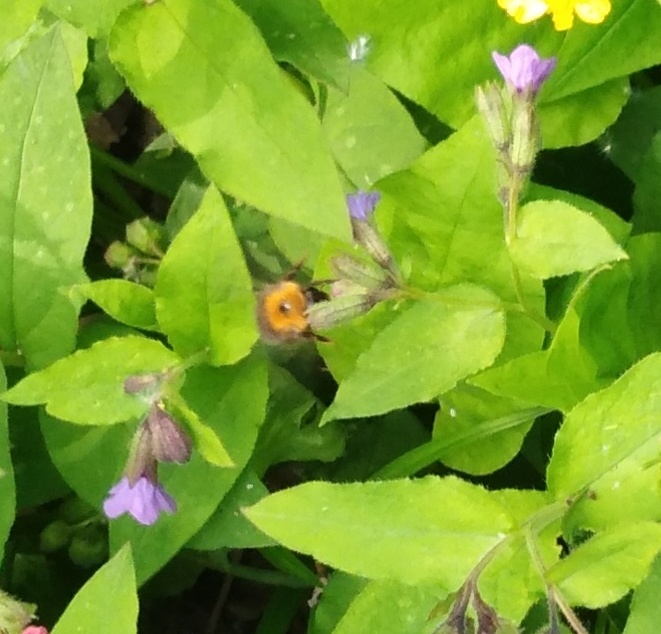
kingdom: Animalia
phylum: Arthropoda
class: Insecta
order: Hymenoptera
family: Apidae
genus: Bombus
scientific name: Bombus hypnorum
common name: New garden bumblebee
